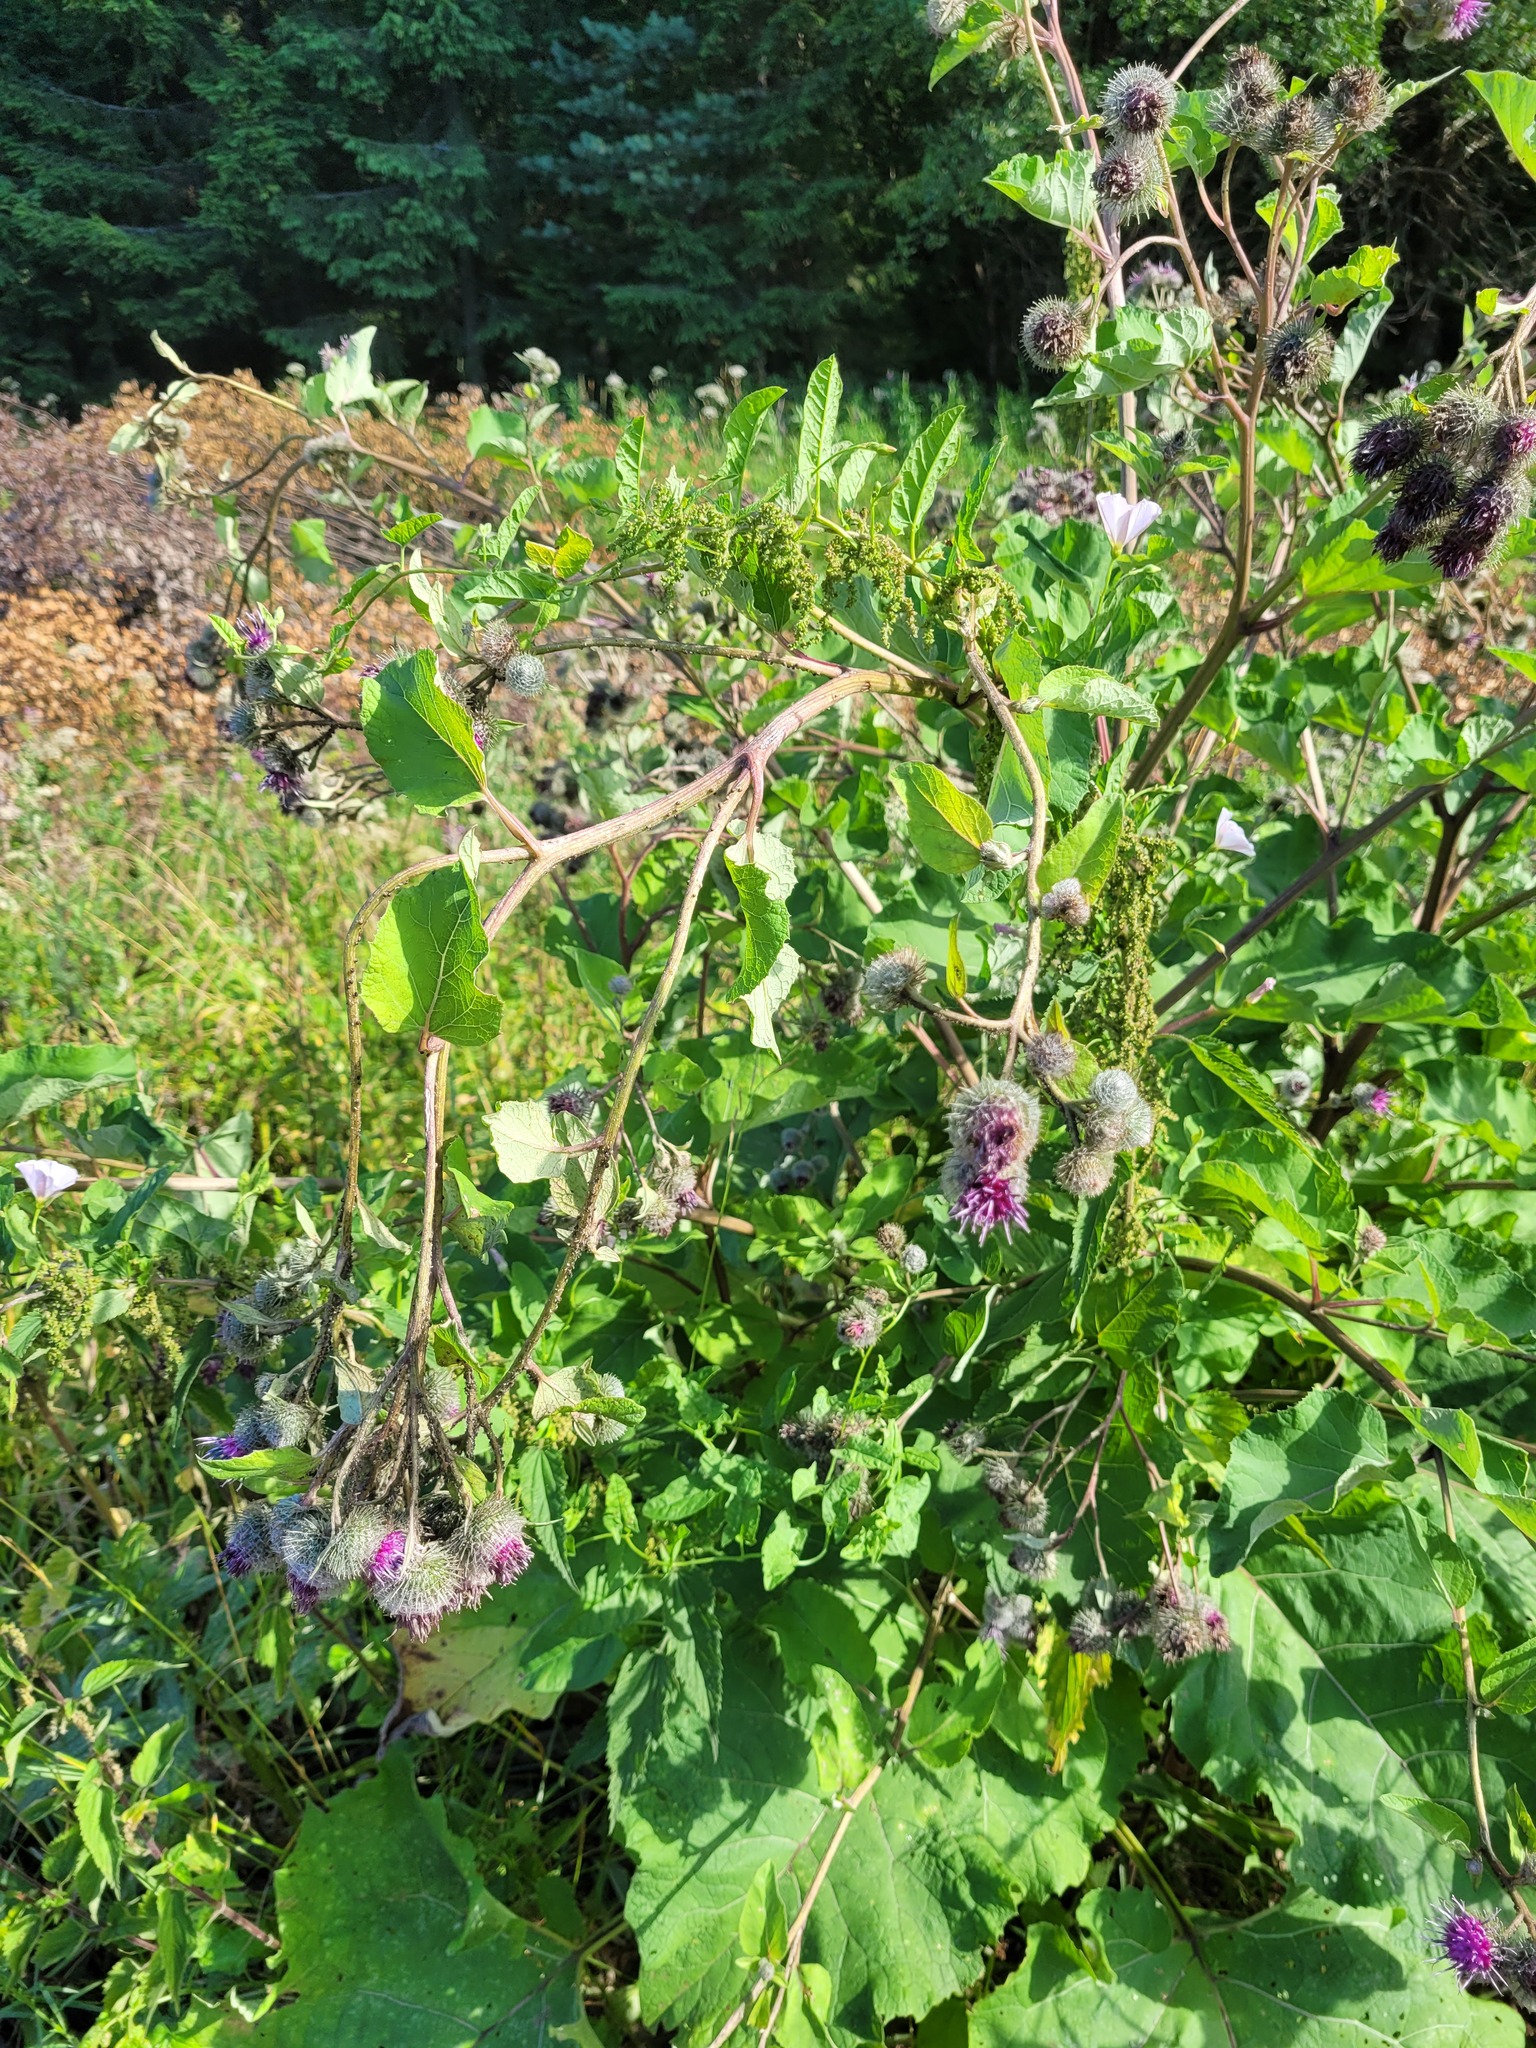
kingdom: Plantae
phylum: Tracheophyta
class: Magnoliopsida
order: Asterales
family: Asteraceae
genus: Arctium
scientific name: Arctium tomentosum
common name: Woolly burdock
